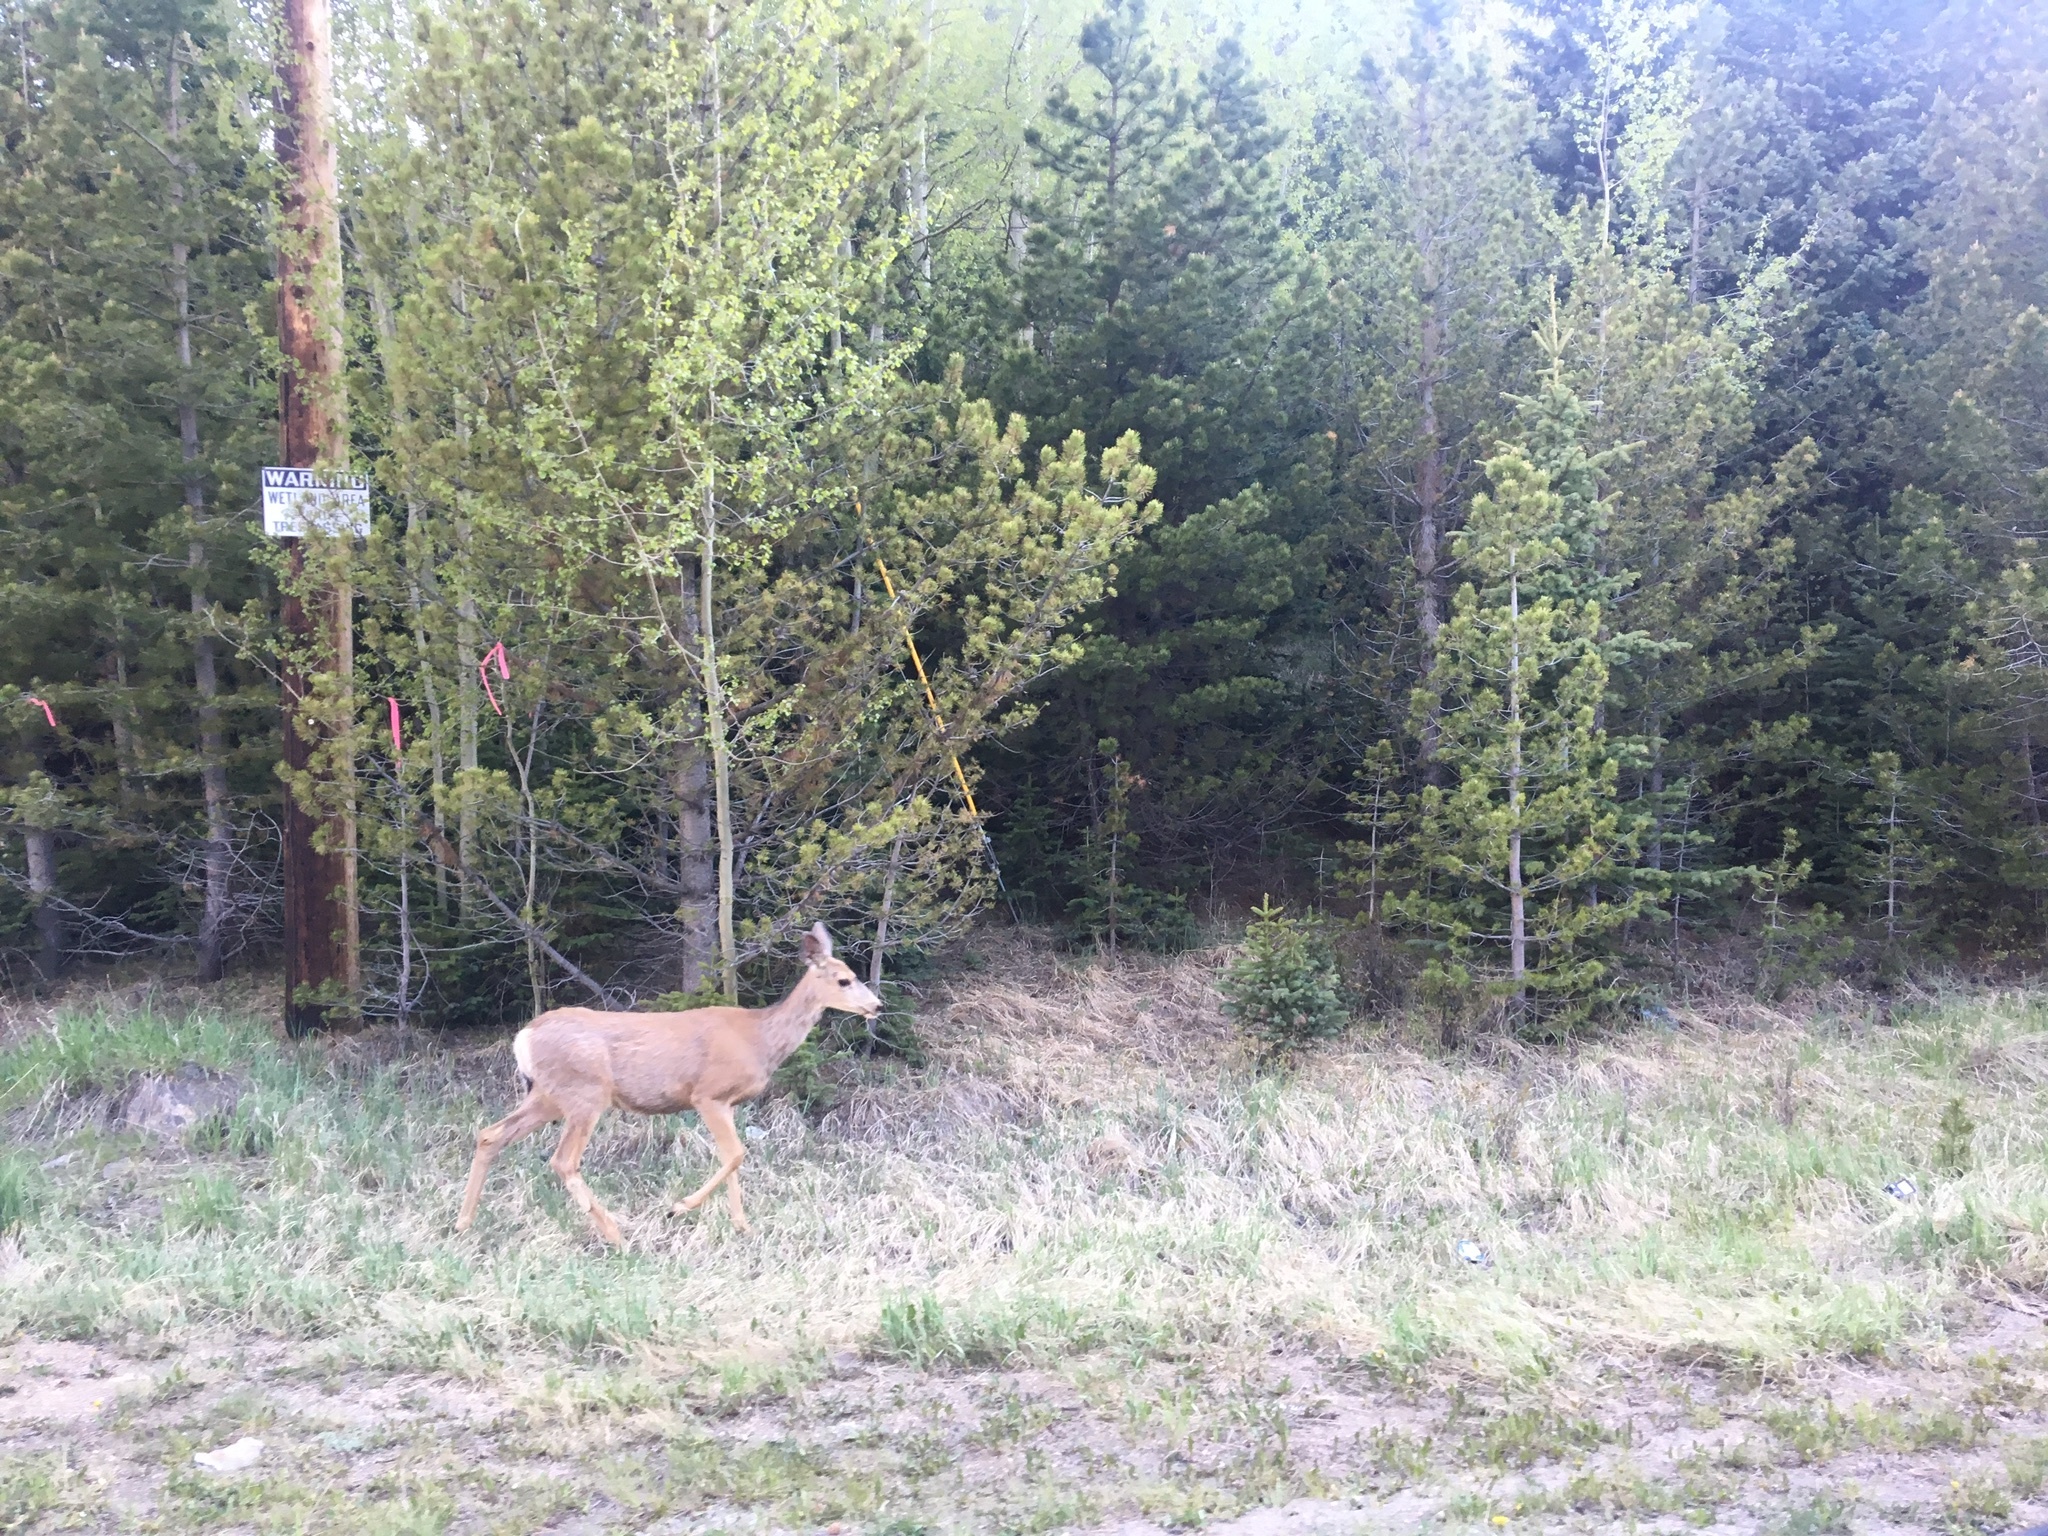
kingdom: Animalia
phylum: Chordata
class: Mammalia
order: Artiodactyla
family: Cervidae
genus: Odocoileus
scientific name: Odocoileus hemionus
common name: Mule deer
